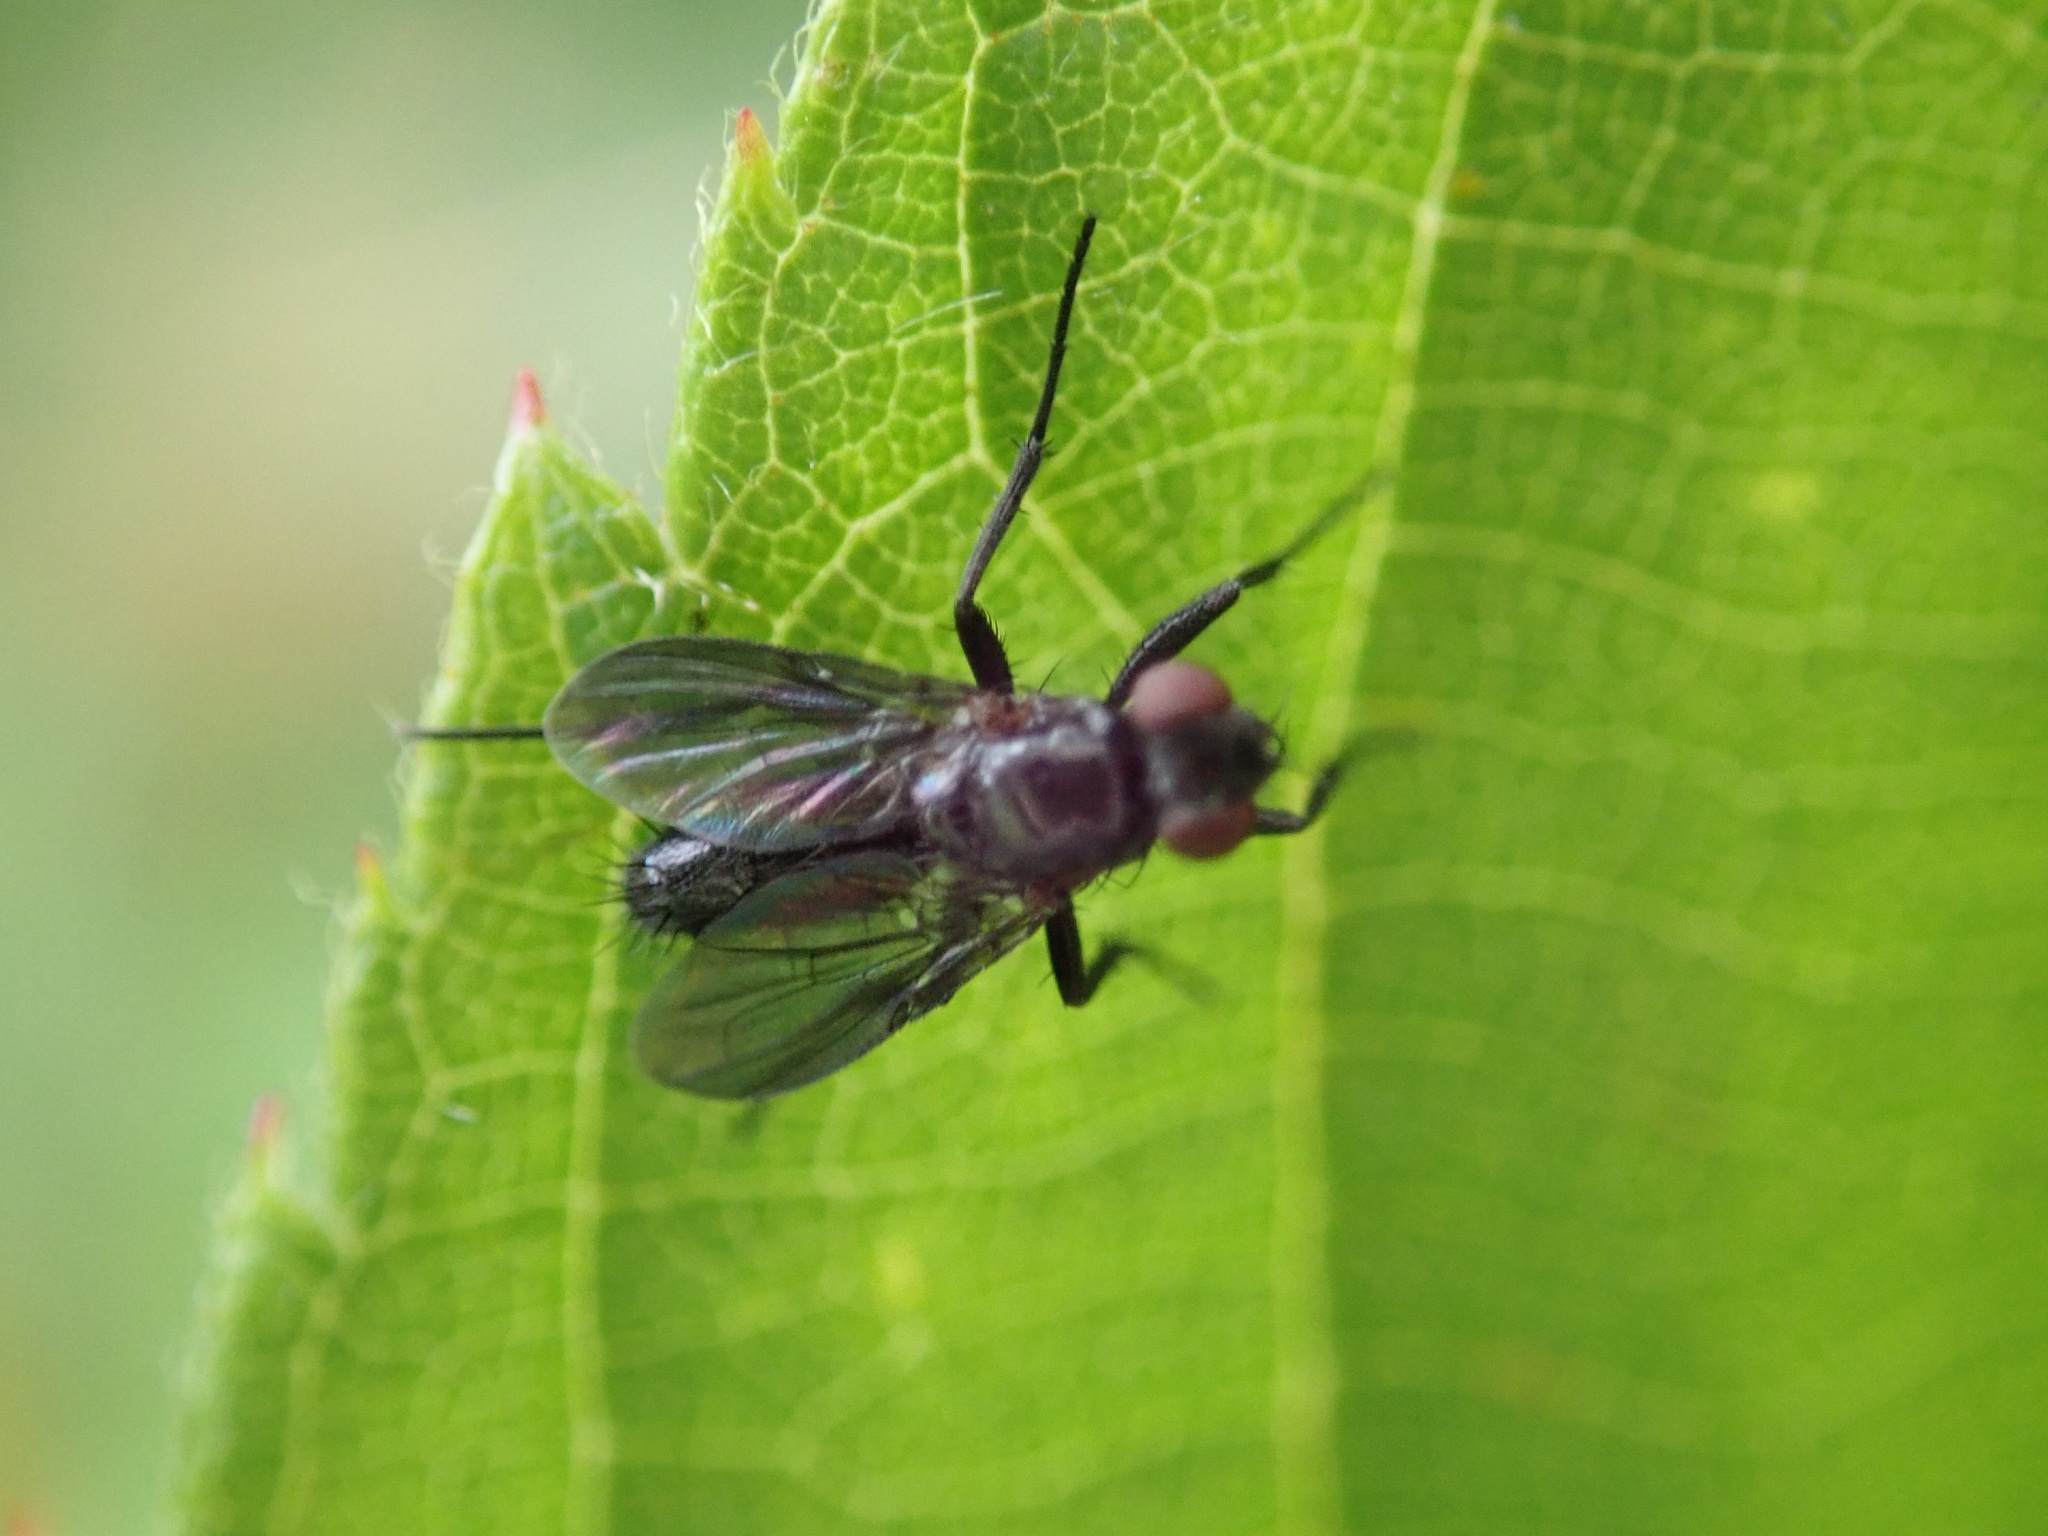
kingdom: Animalia
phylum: Arthropoda
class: Insecta
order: Diptera
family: Calliphoridae
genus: Melanophora
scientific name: Melanophora roralis
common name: Smoky-winged woodlouse-fly
